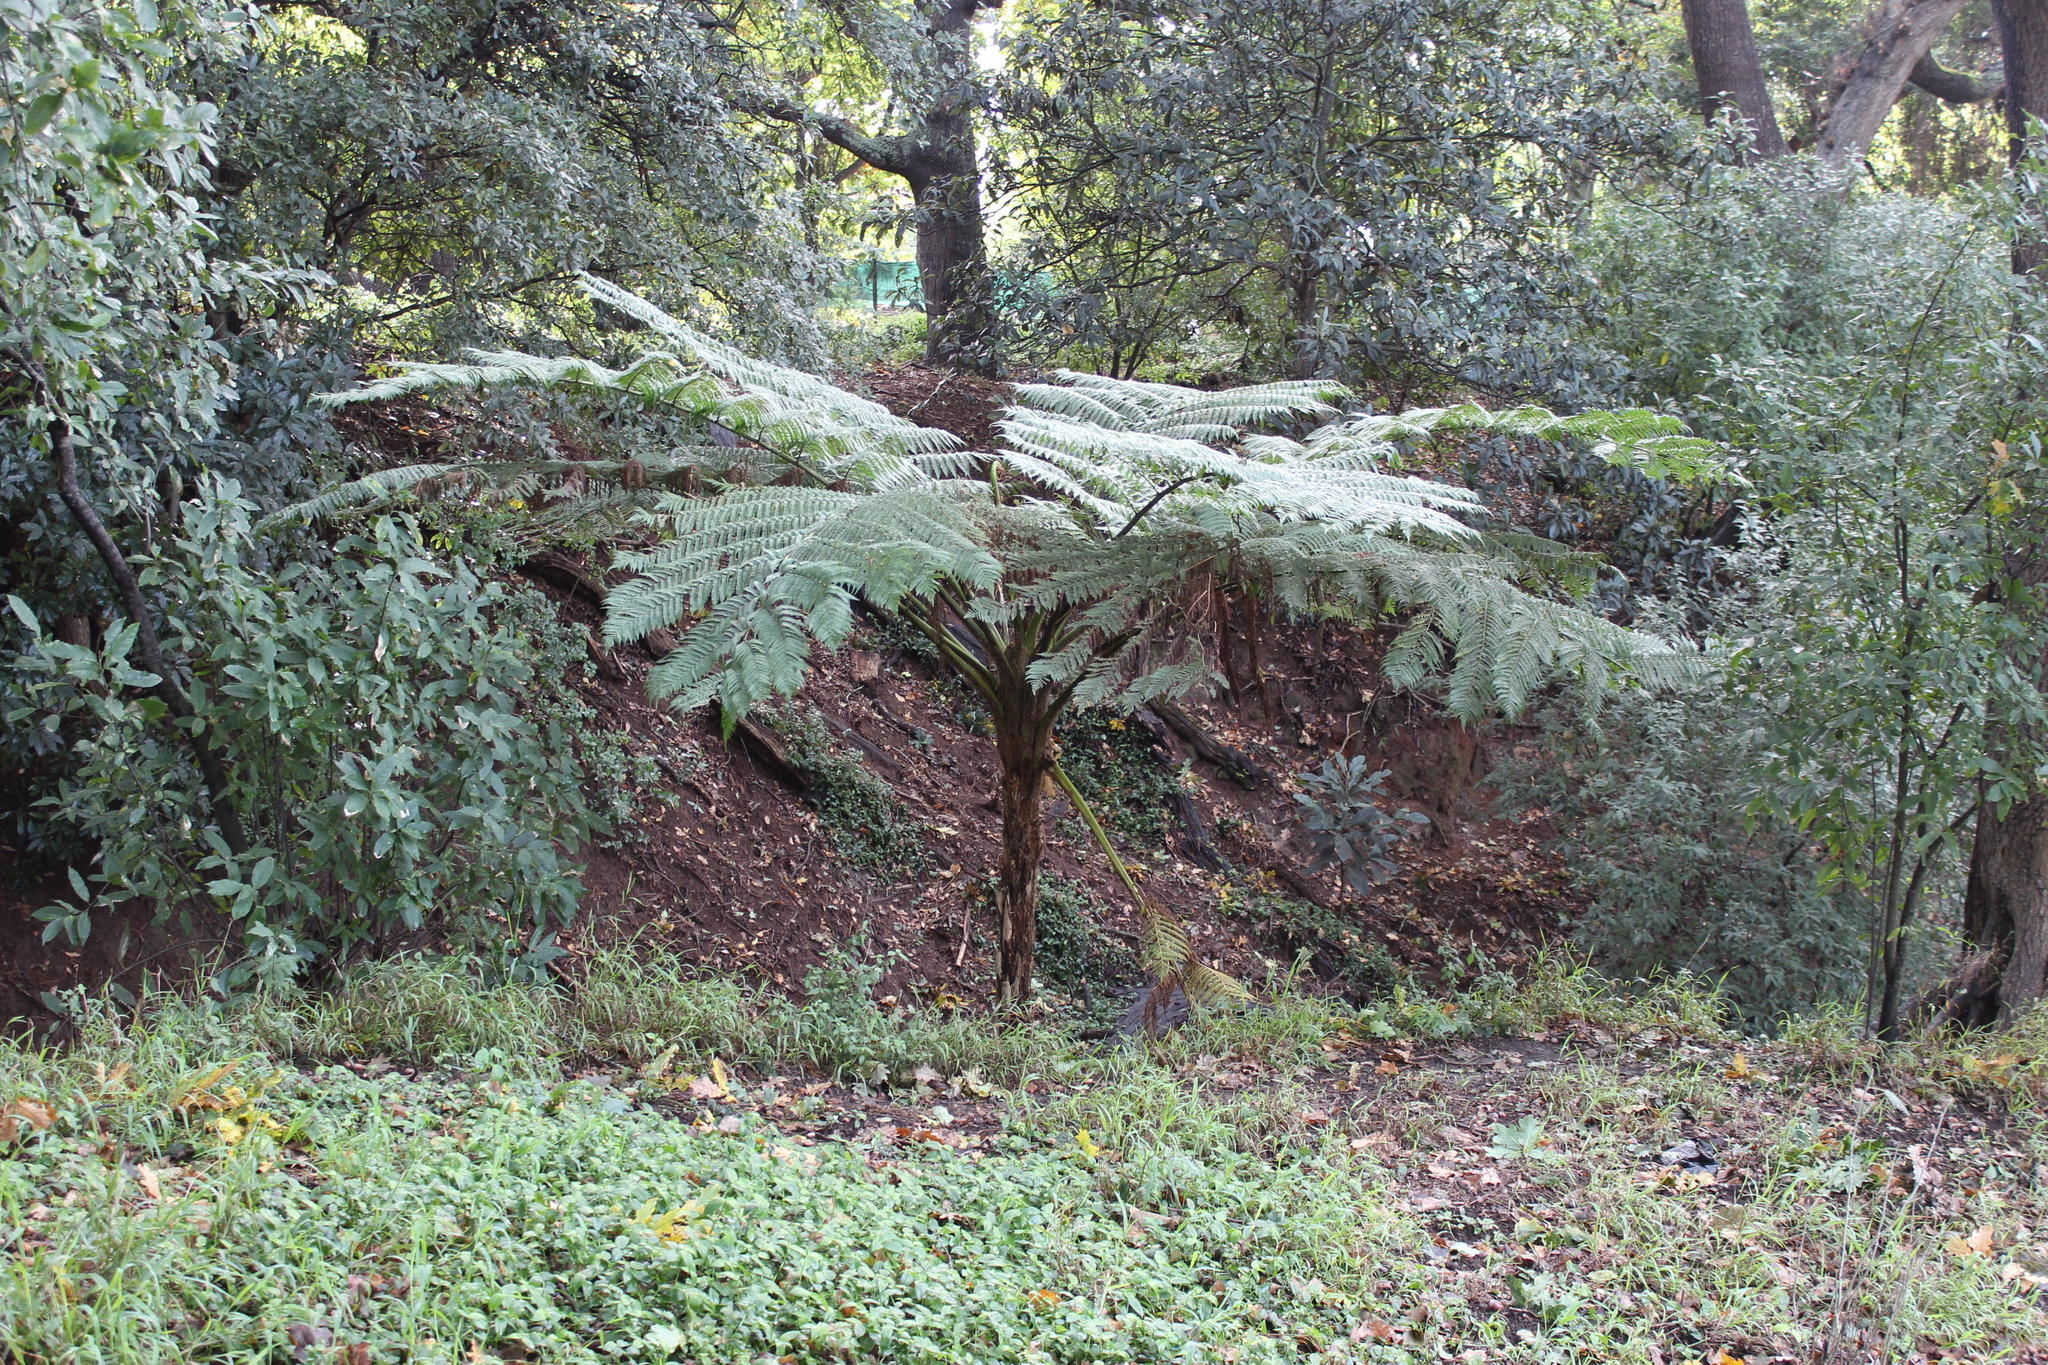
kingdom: Plantae
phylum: Tracheophyta
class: Polypodiopsida
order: Cyatheales
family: Cyatheaceae
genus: Sphaeropteris
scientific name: Sphaeropteris cooperi
